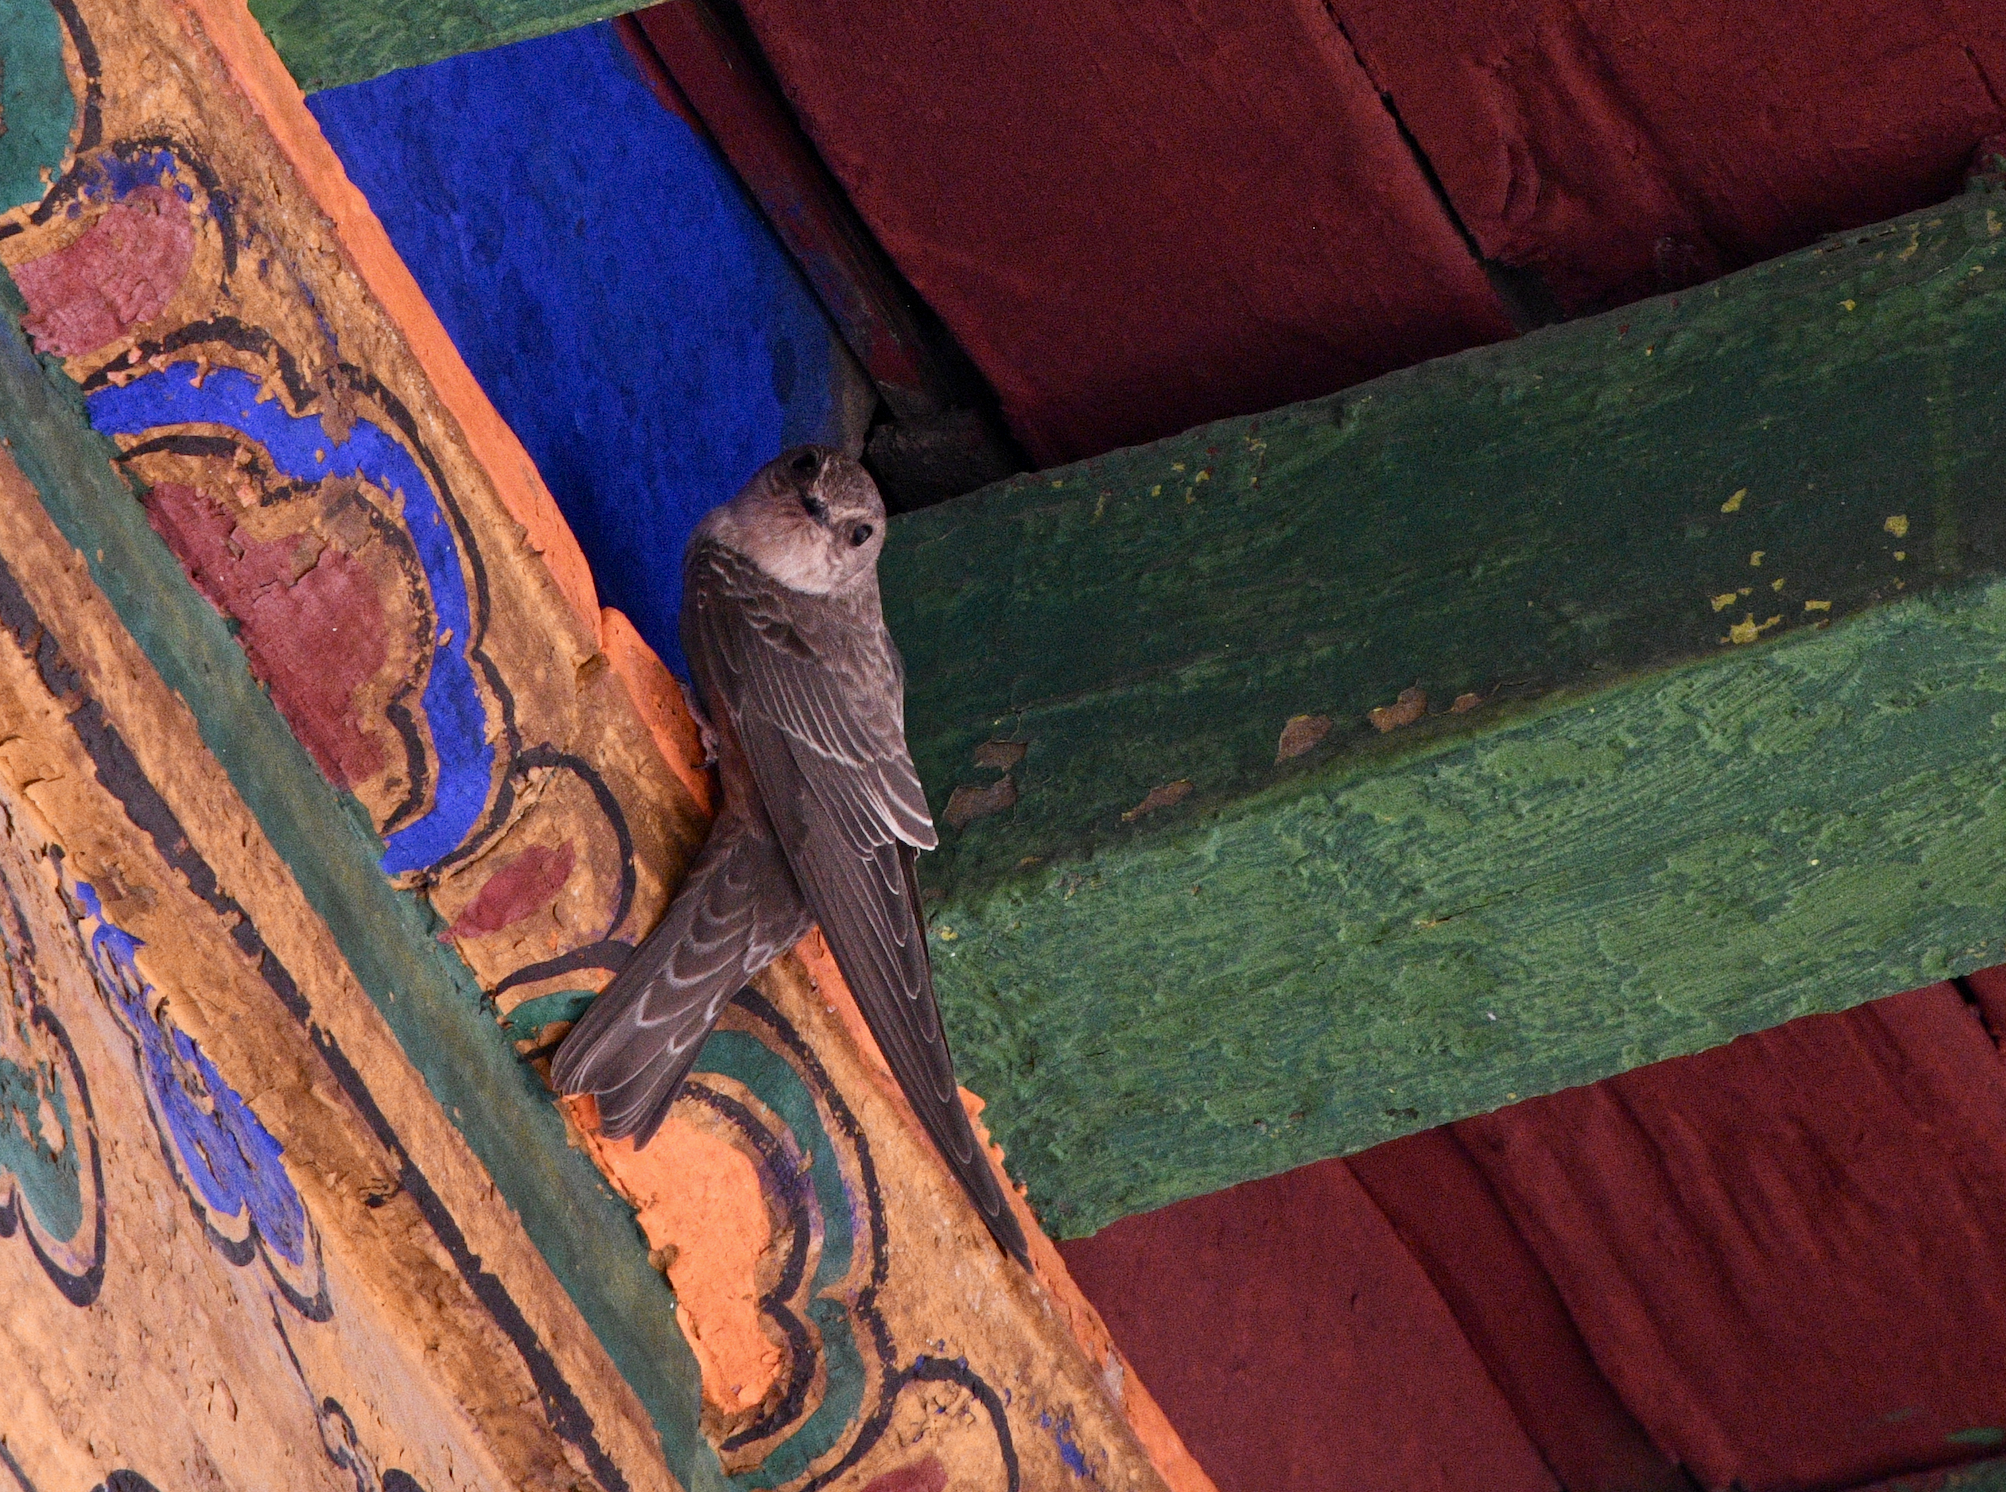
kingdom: Animalia
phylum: Chordata
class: Aves
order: Passeriformes
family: Hirundinidae
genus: Ptyonoprogne
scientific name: Ptyonoprogne rupestris
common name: Eurasian crag martin
